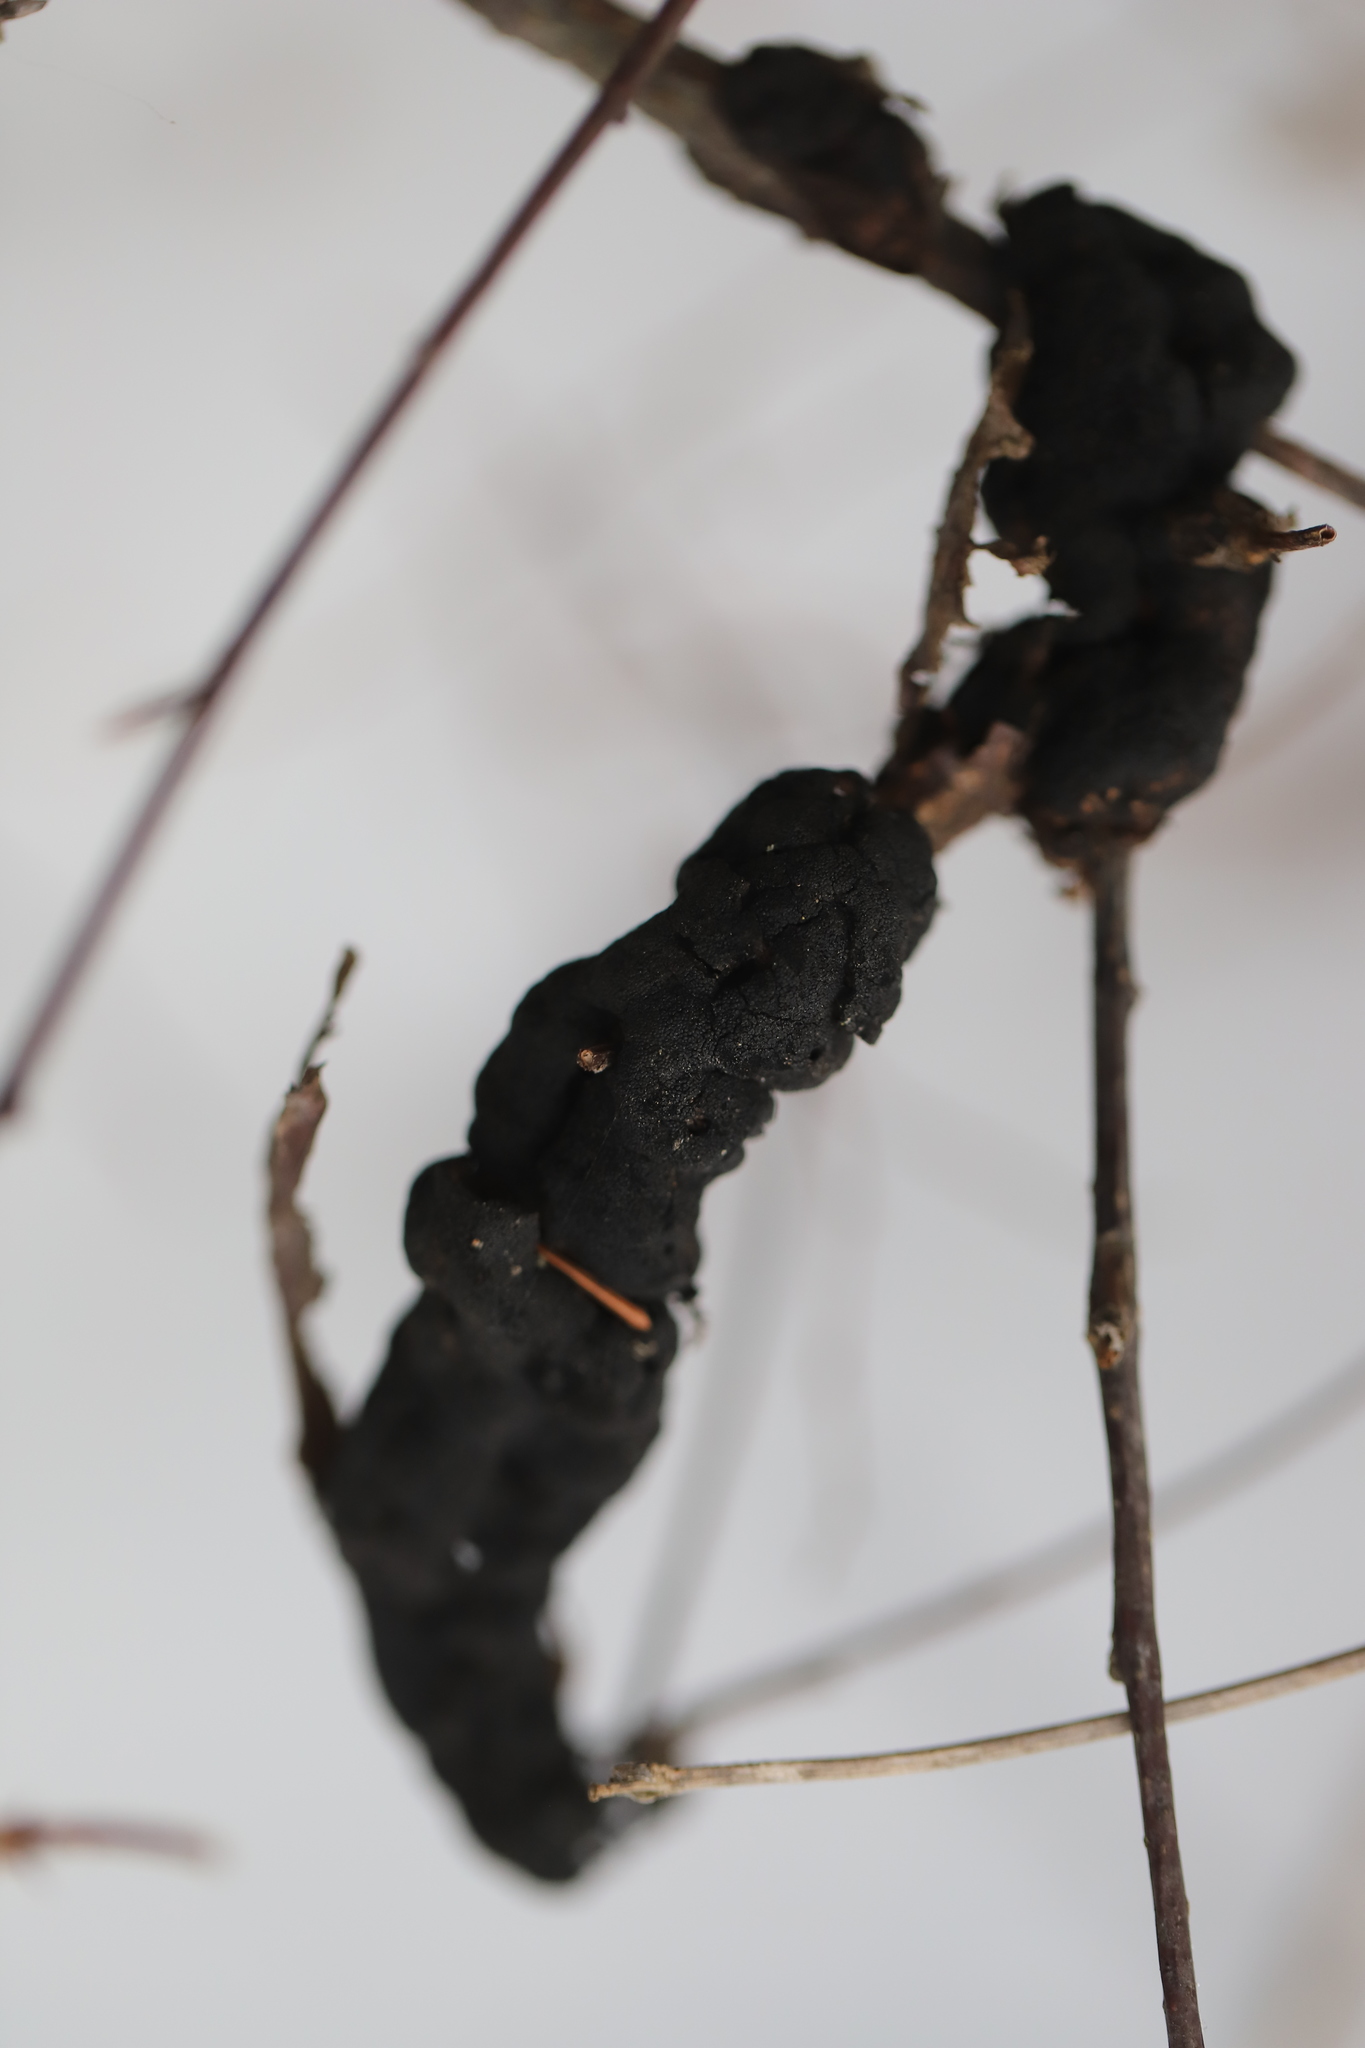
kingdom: Fungi
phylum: Ascomycota
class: Dothideomycetes
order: Venturiales
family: Venturiaceae
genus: Apiosporina
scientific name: Apiosporina morbosa
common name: Black knot
